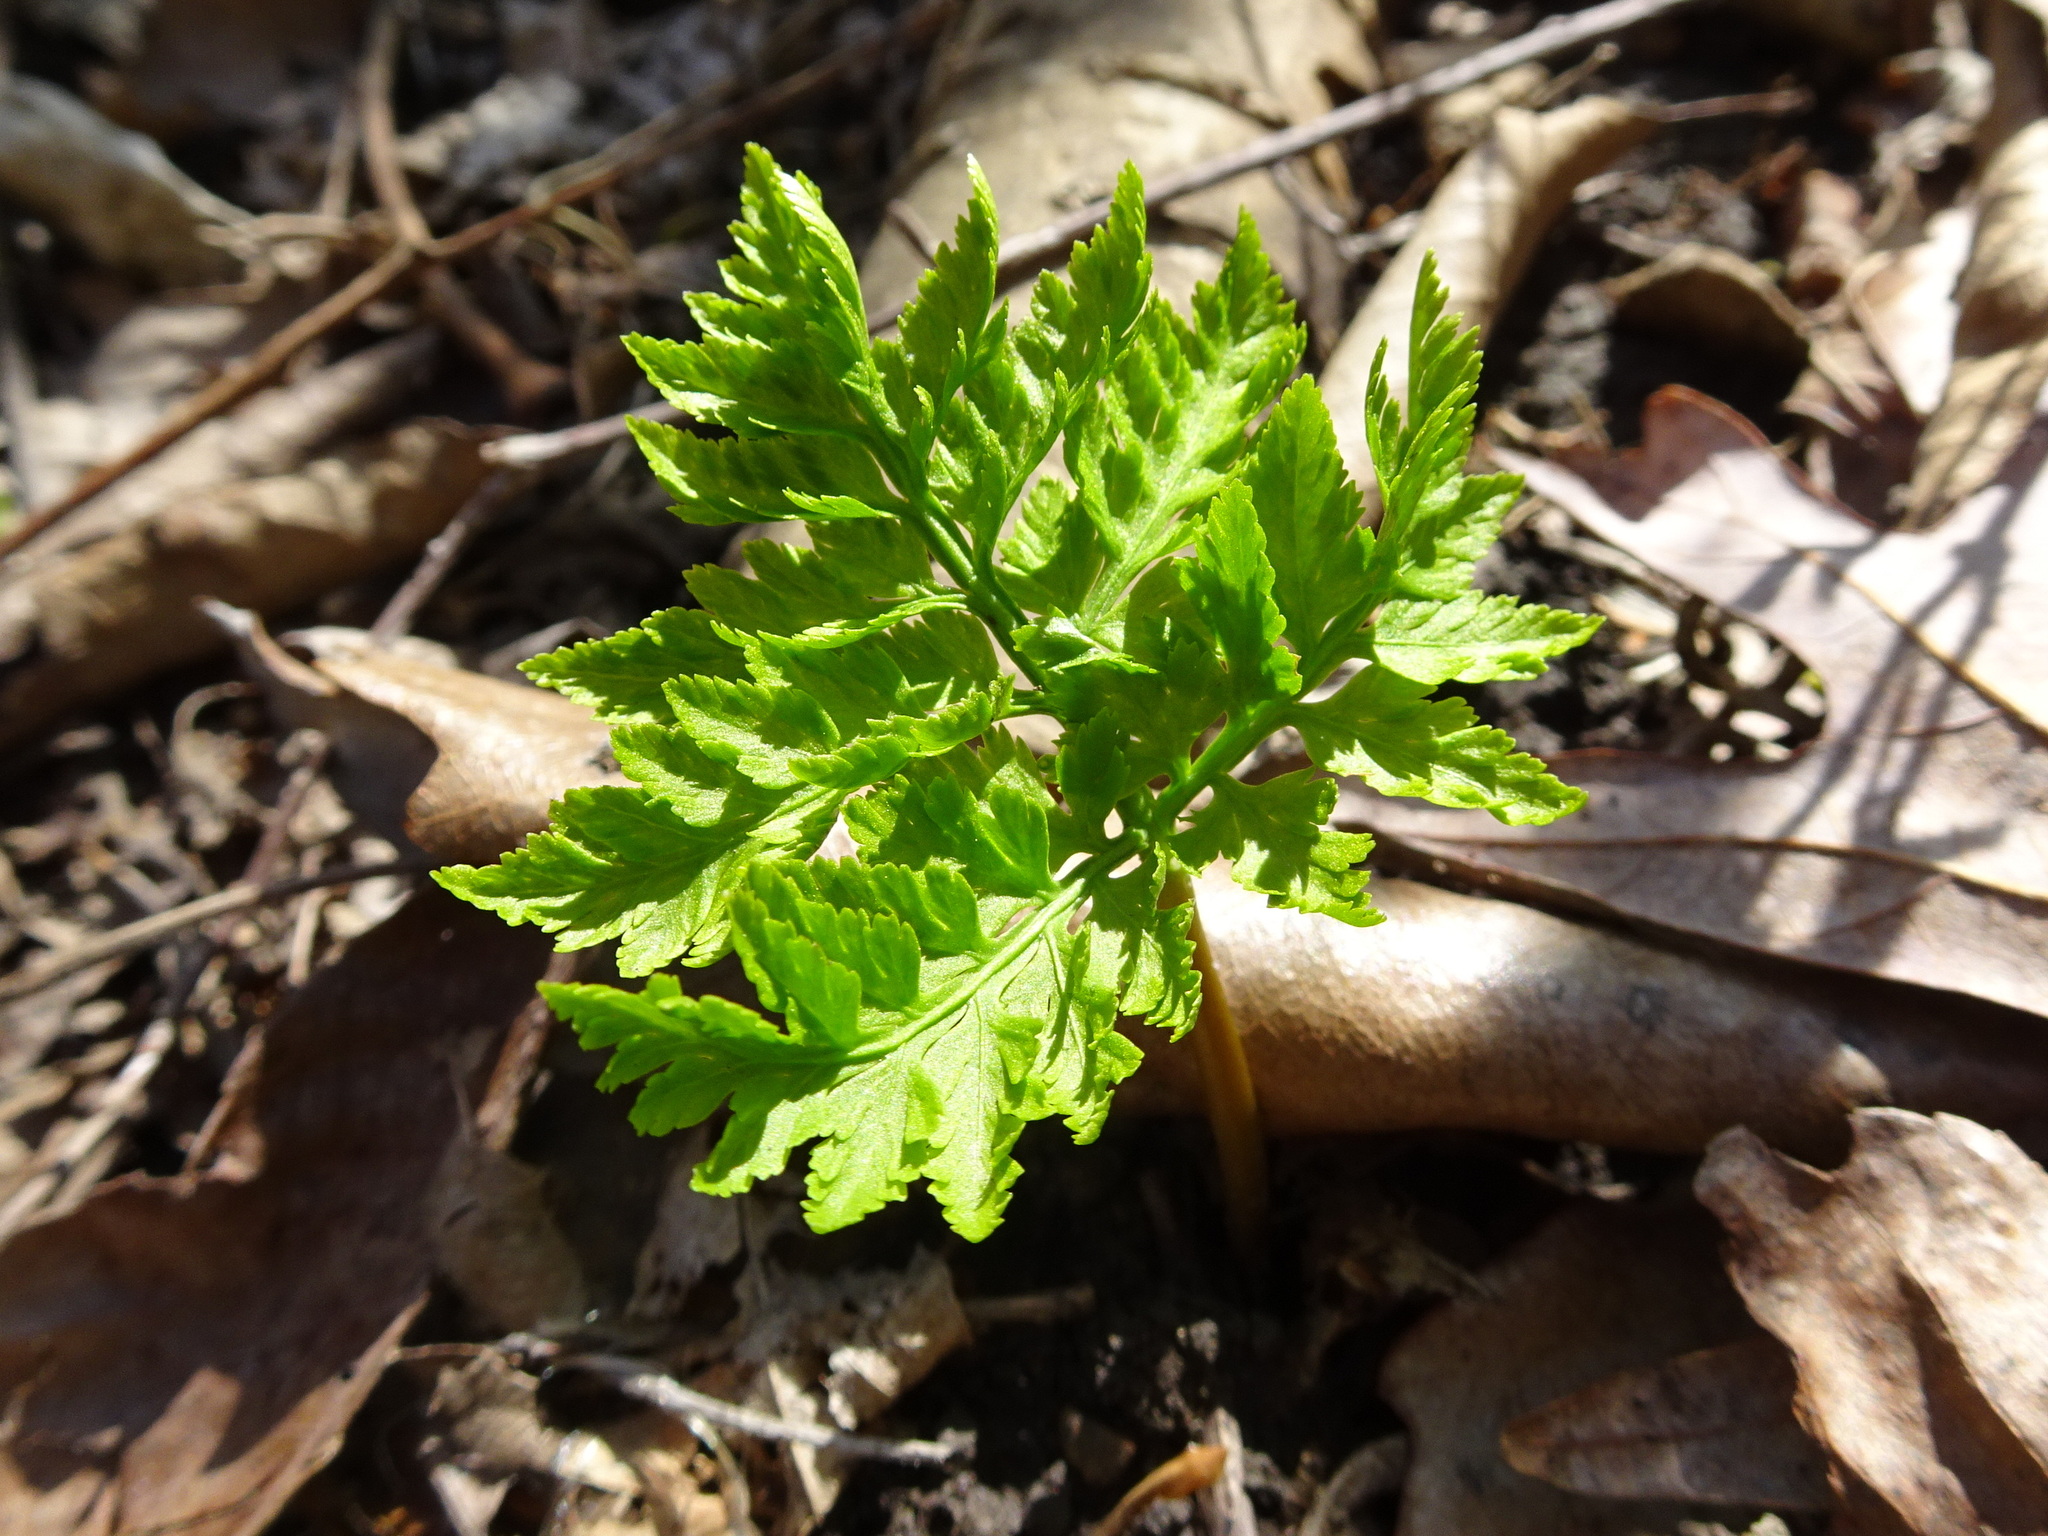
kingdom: Plantae
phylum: Tracheophyta
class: Polypodiopsida
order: Ophioglossales
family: Ophioglossaceae
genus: Botrypus
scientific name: Botrypus virginianus
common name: Common grapefern
